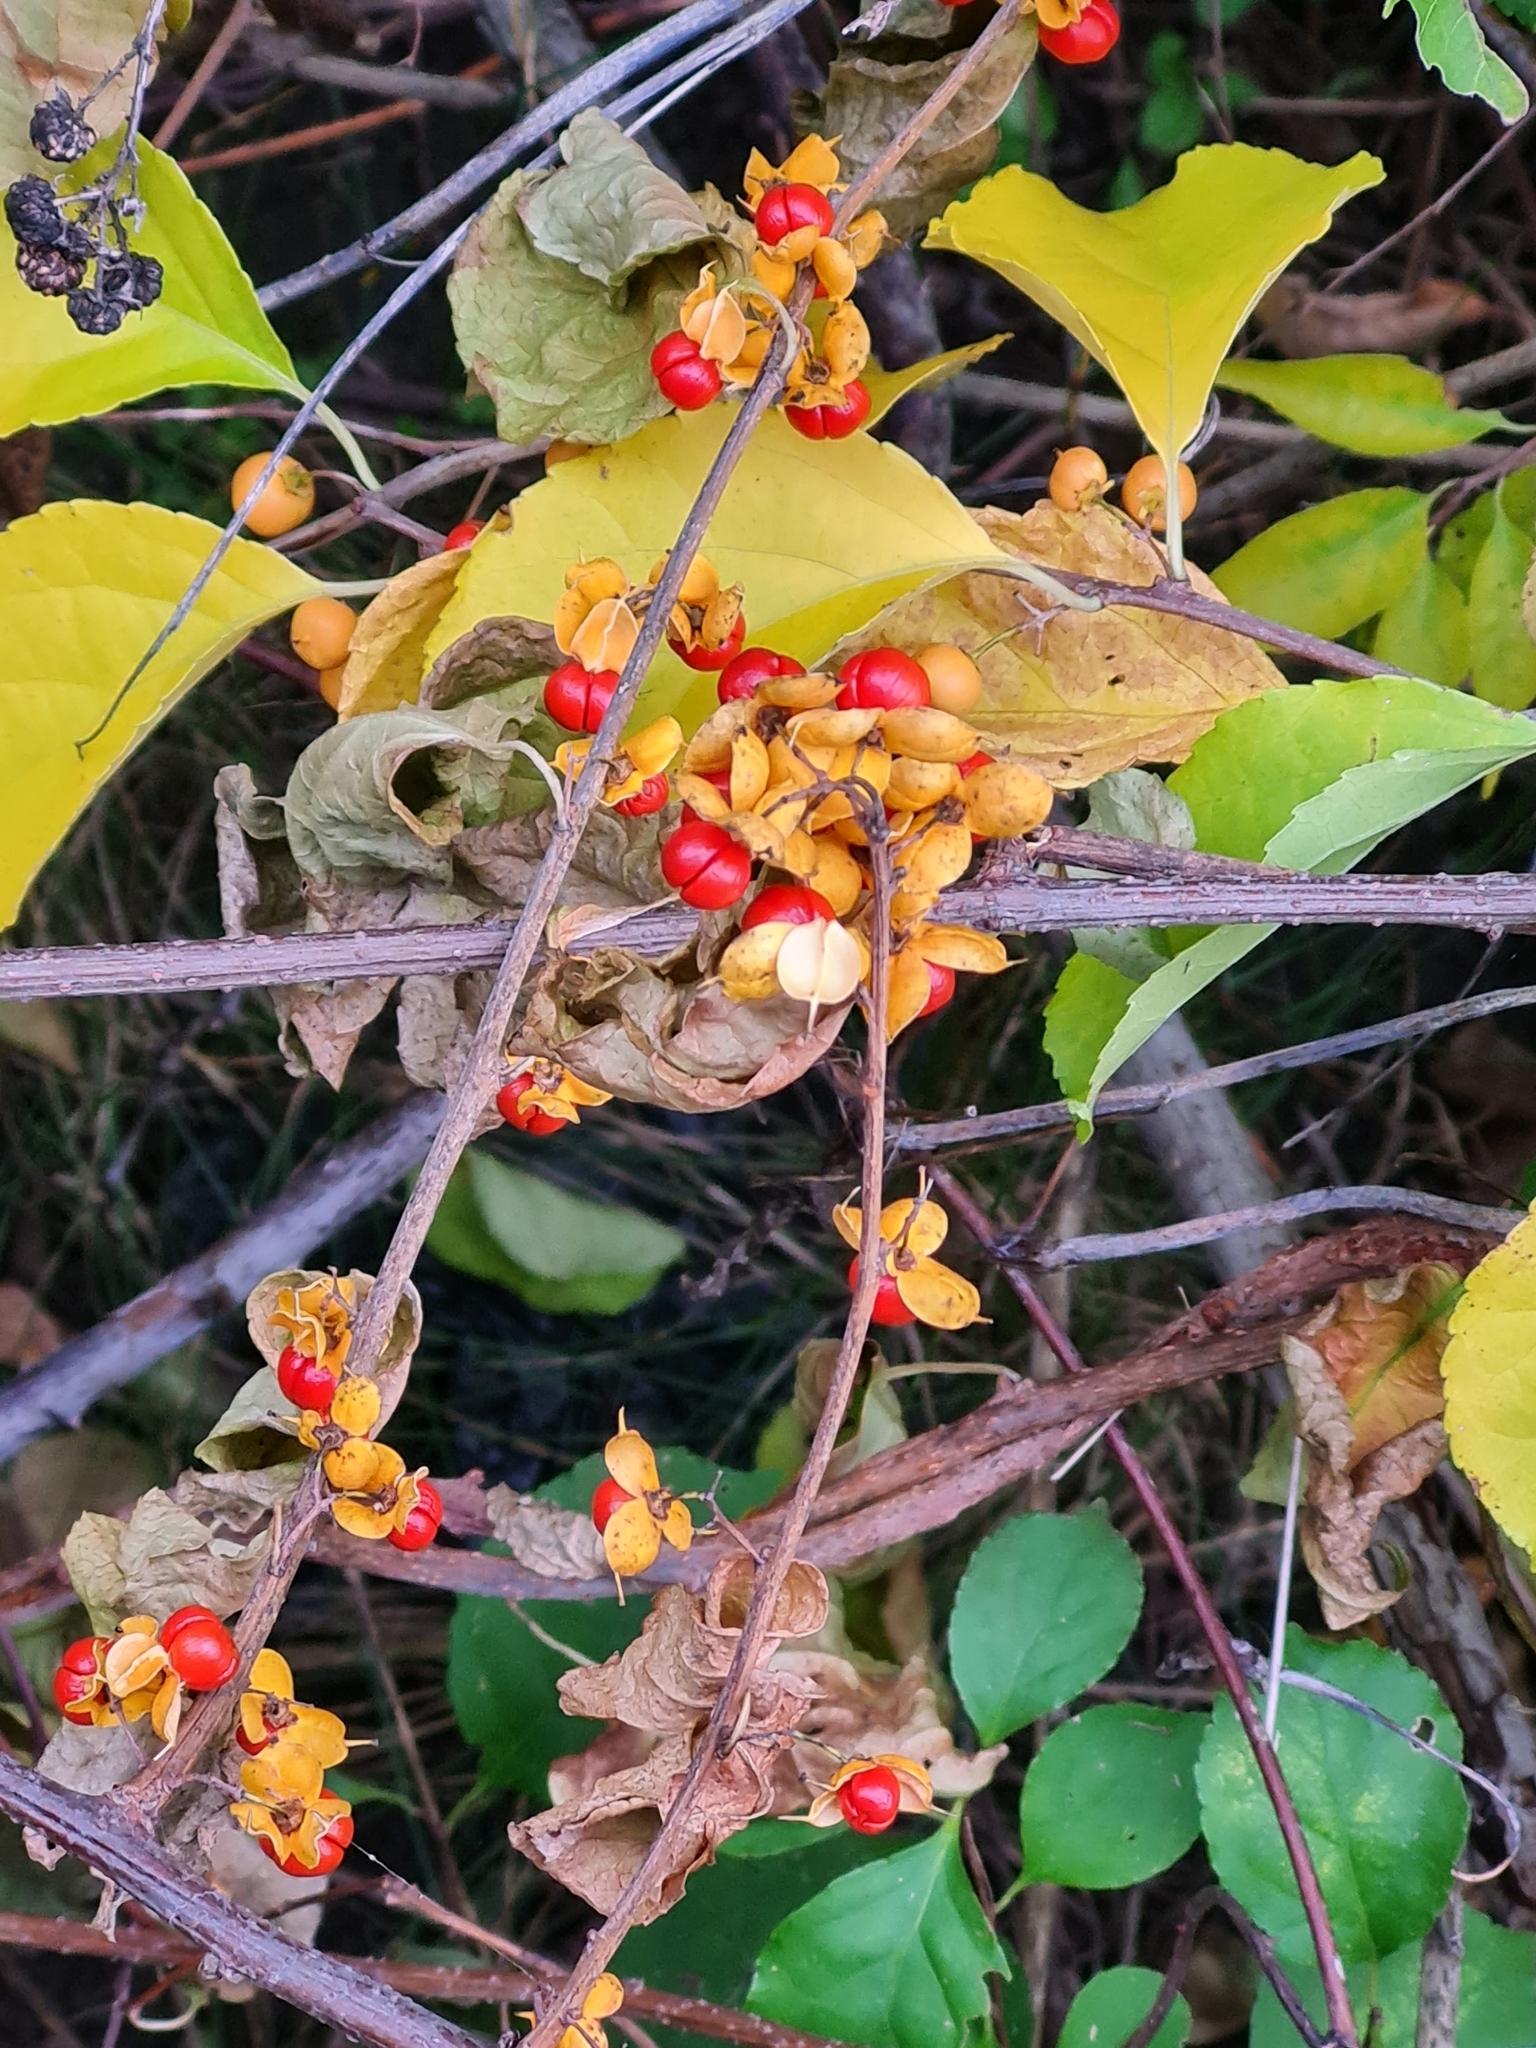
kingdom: Plantae
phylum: Tracheophyta
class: Magnoliopsida
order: Celastrales
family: Celastraceae
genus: Celastrus
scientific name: Celastrus orbiculatus
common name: Oriental bittersweet
